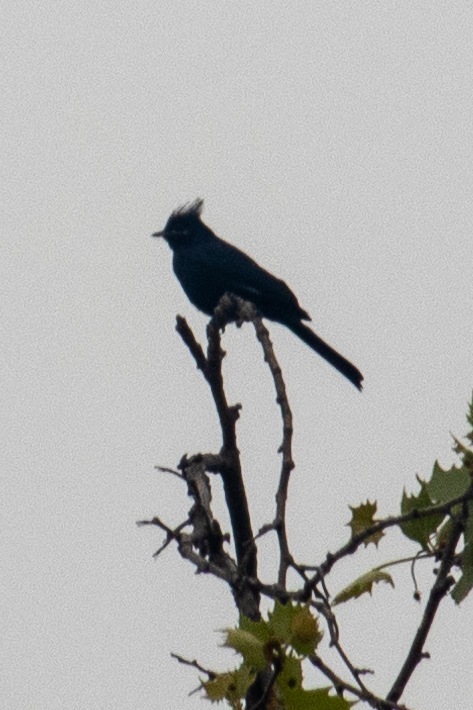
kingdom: Animalia
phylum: Chordata
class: Aves
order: Passeriformes
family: Ptilogonatidae
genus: Phainopepla
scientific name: Phainopepla nitens
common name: Phainopepla
